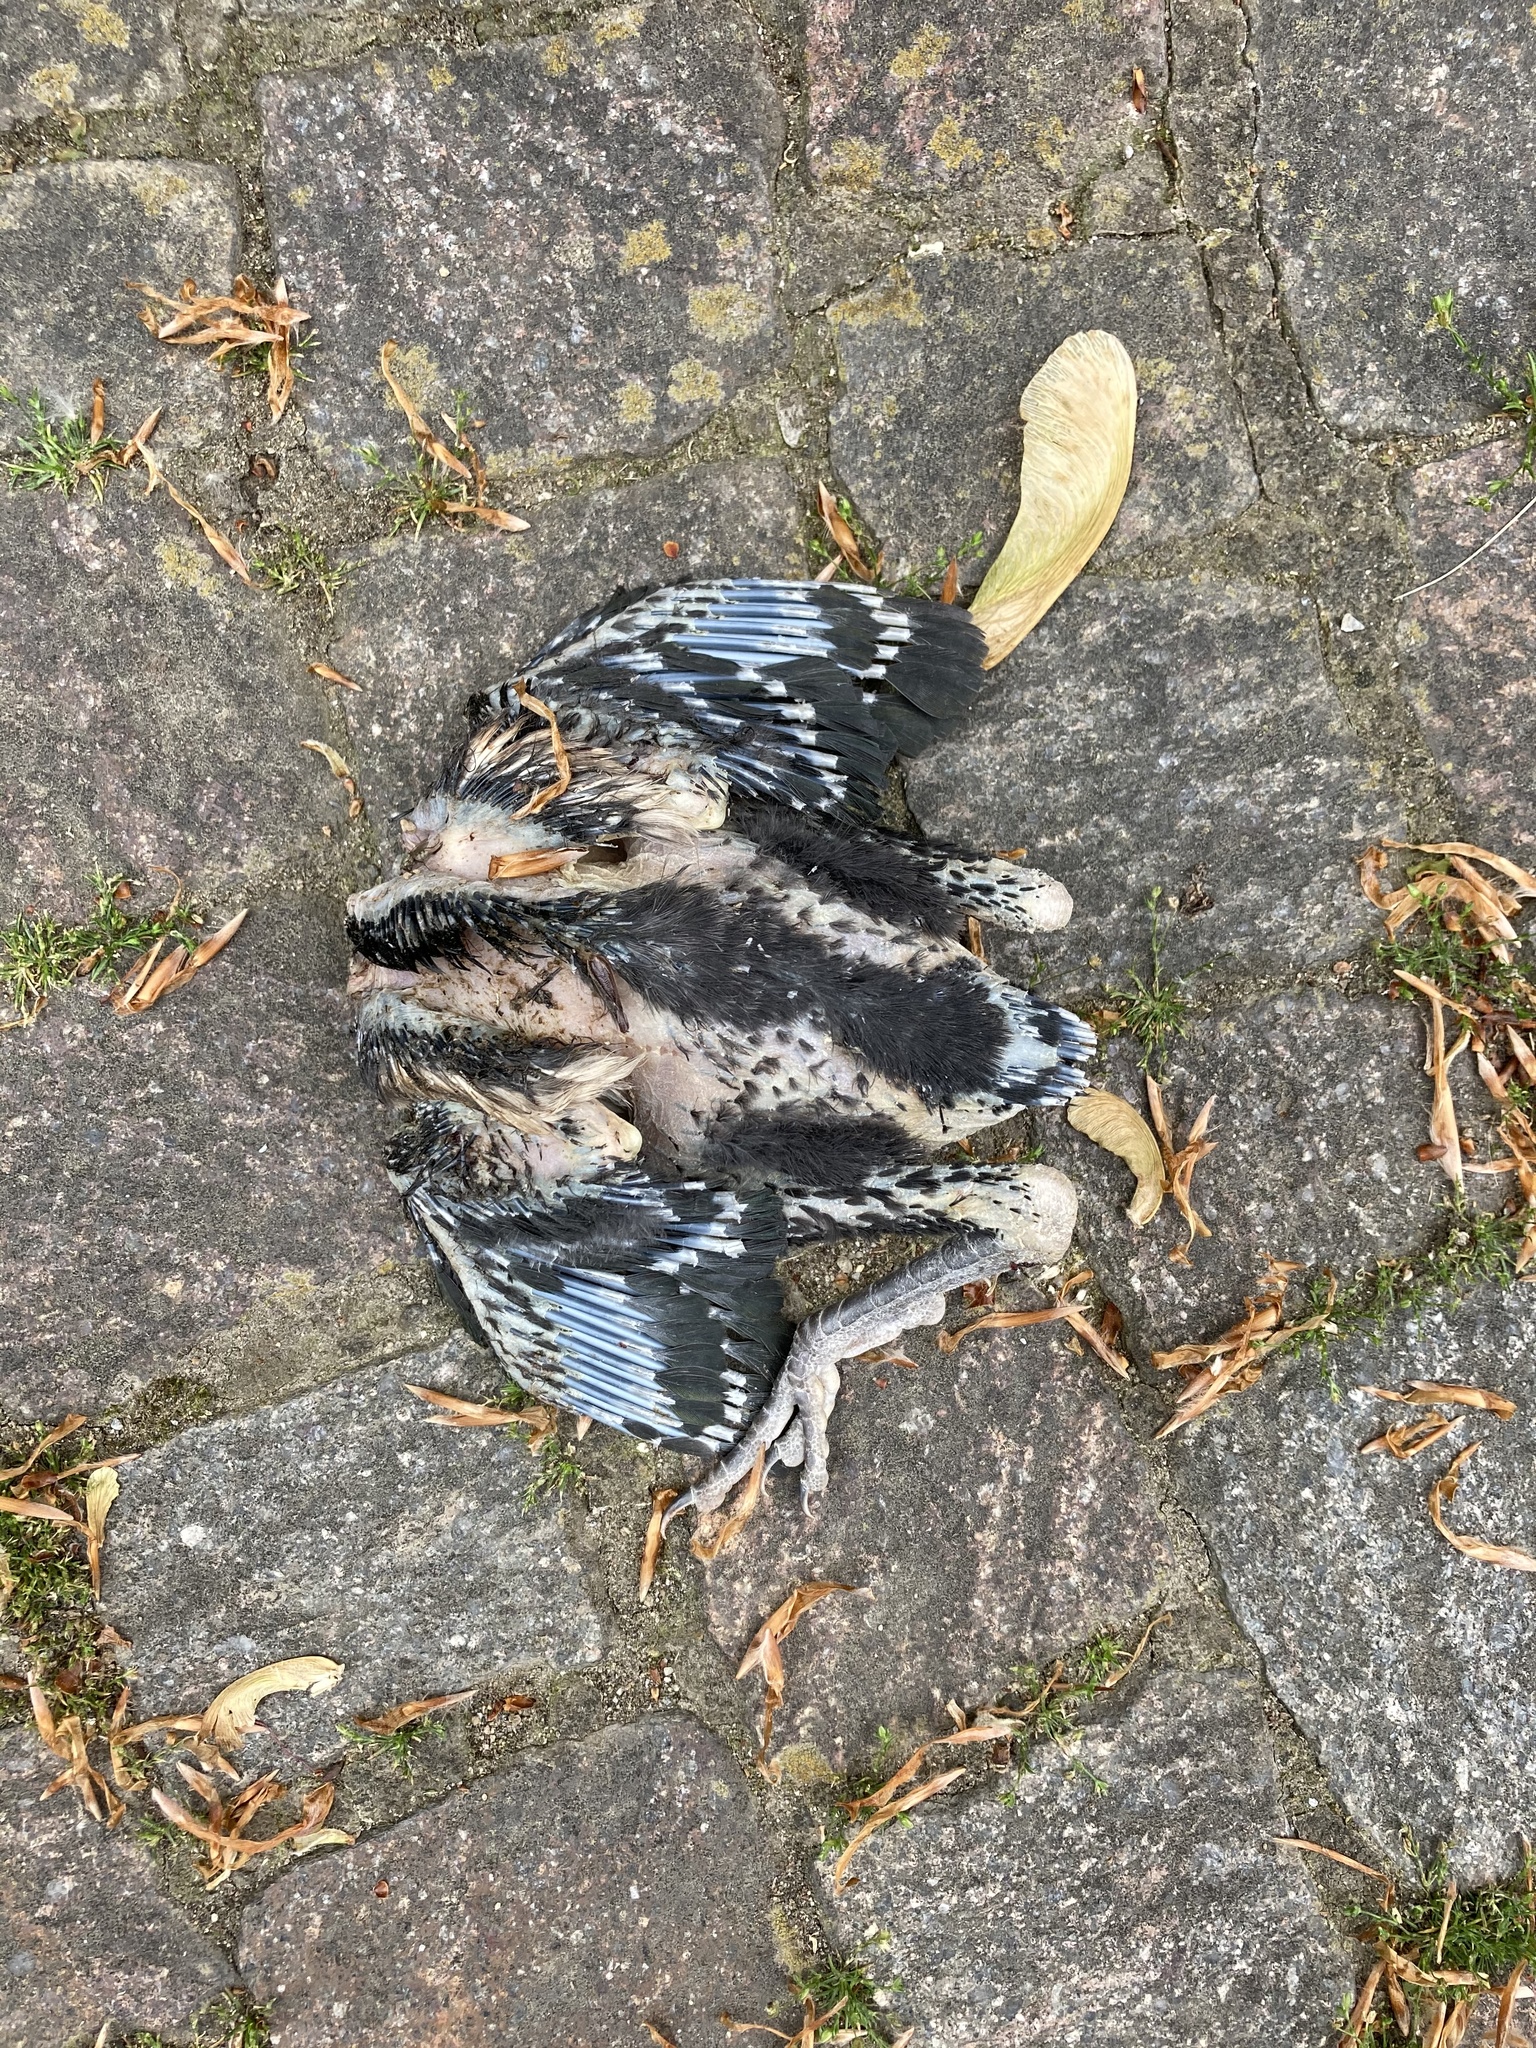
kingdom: Animalia
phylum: Chordata
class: Aves
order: Passeriformes
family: Corvidae
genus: Pica
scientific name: Pica pica
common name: Eurasian magpie
